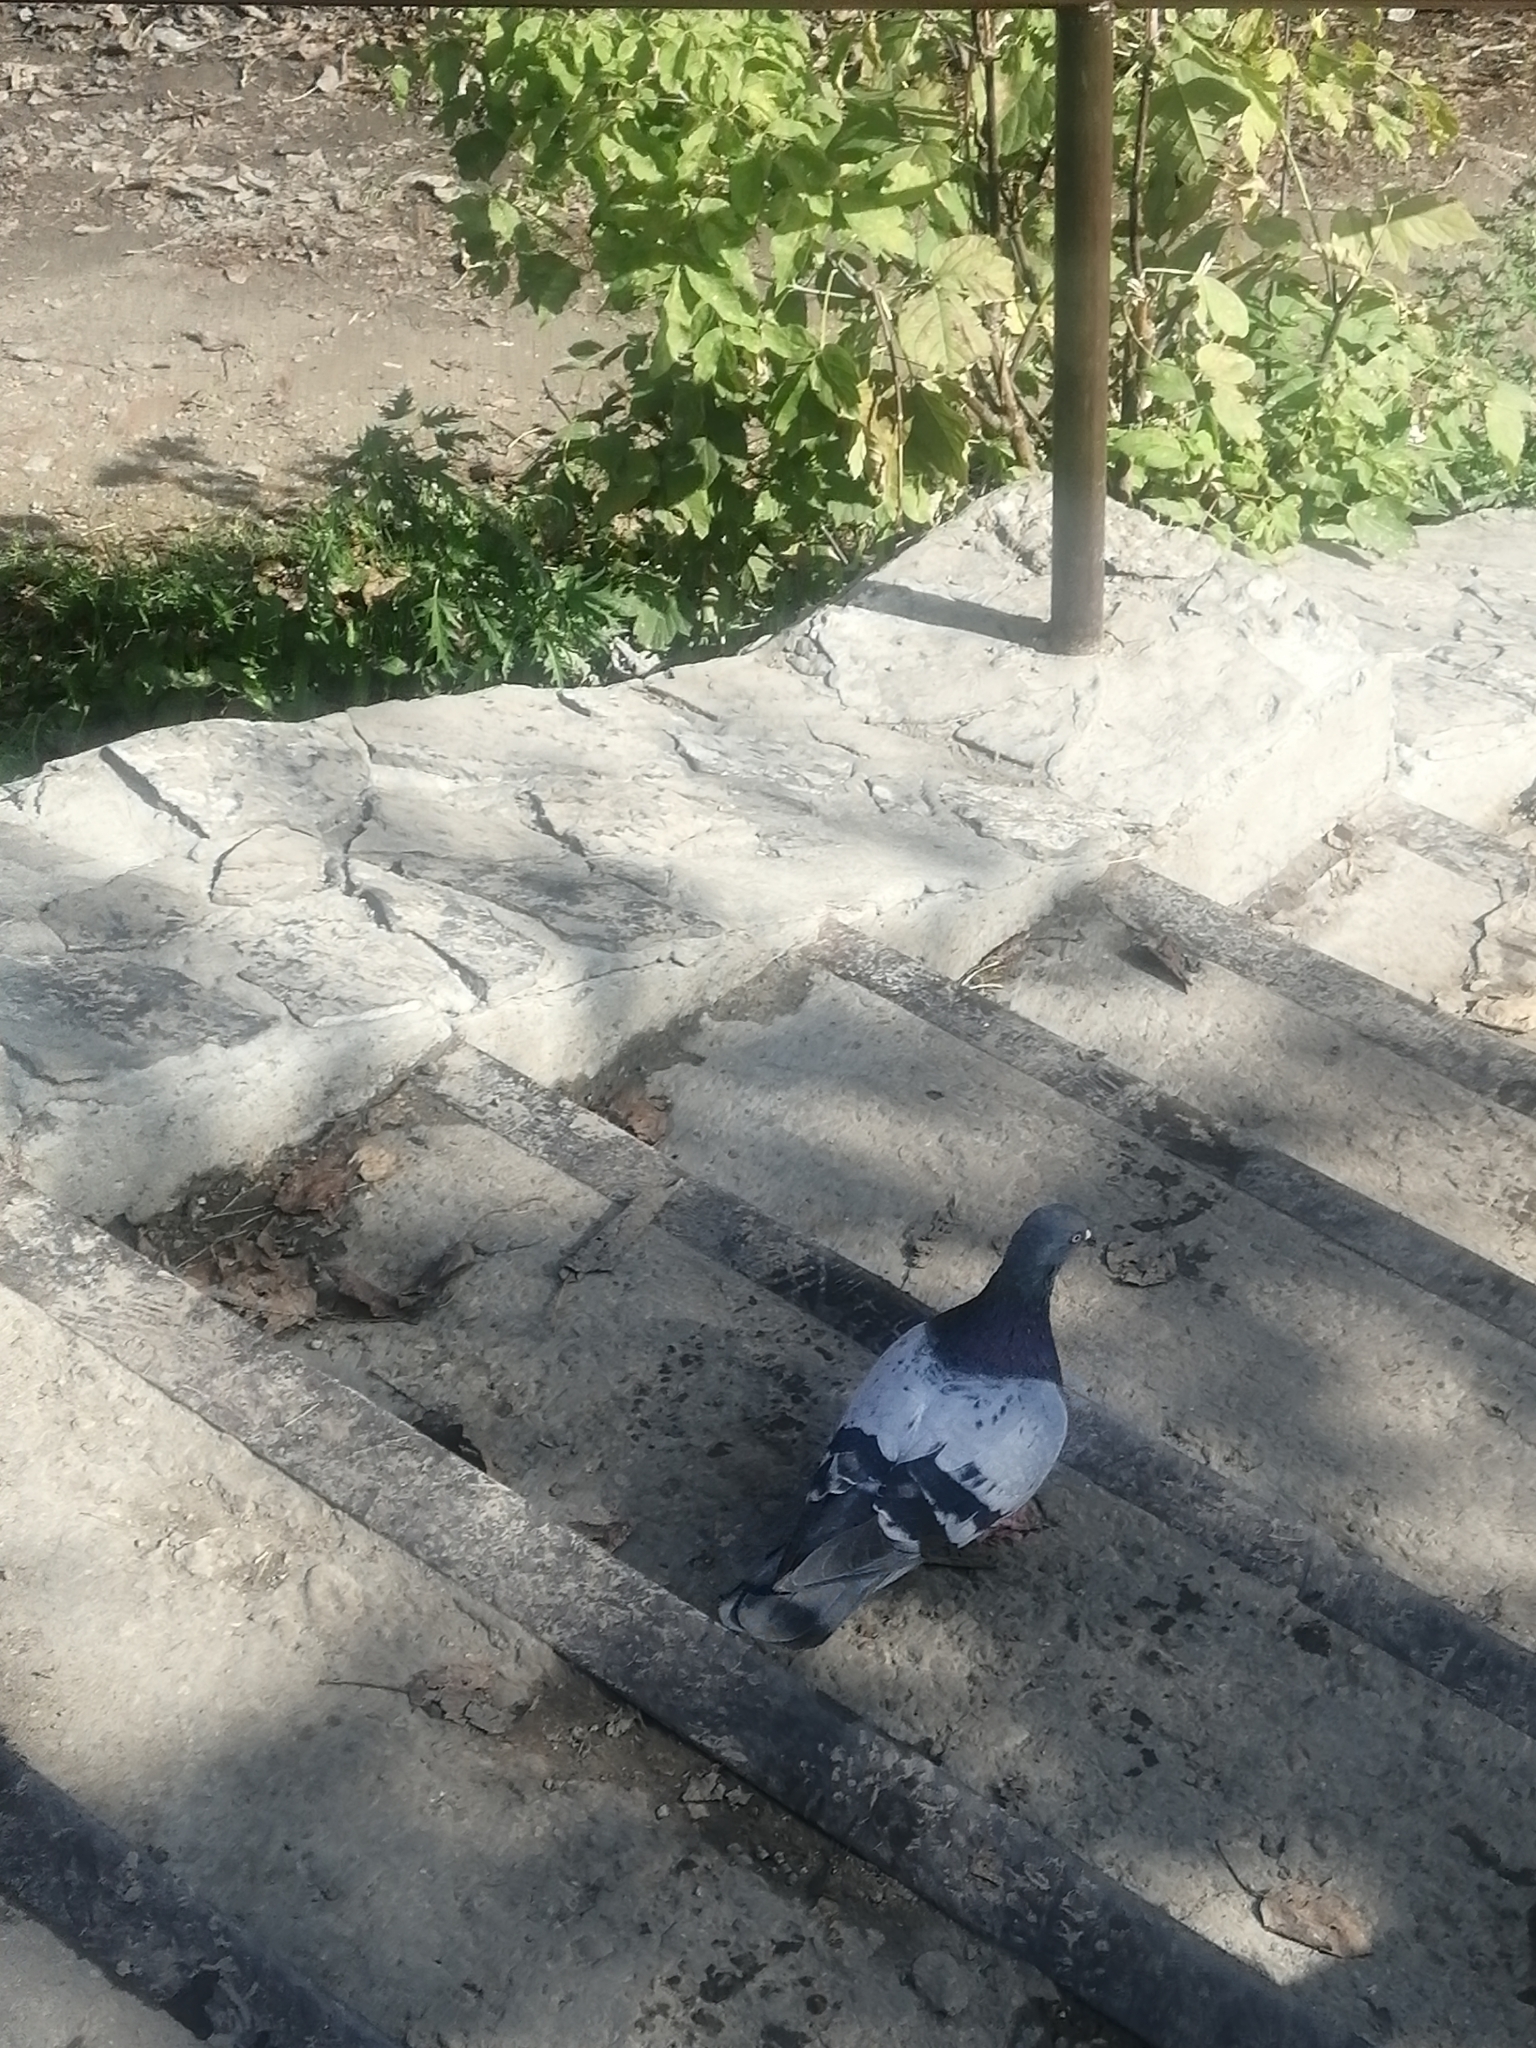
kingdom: Animalia
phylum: Chordata
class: Aves
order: Columbiformes
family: Columbidae
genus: Columba
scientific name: Columba livia
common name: Rock pigeon
